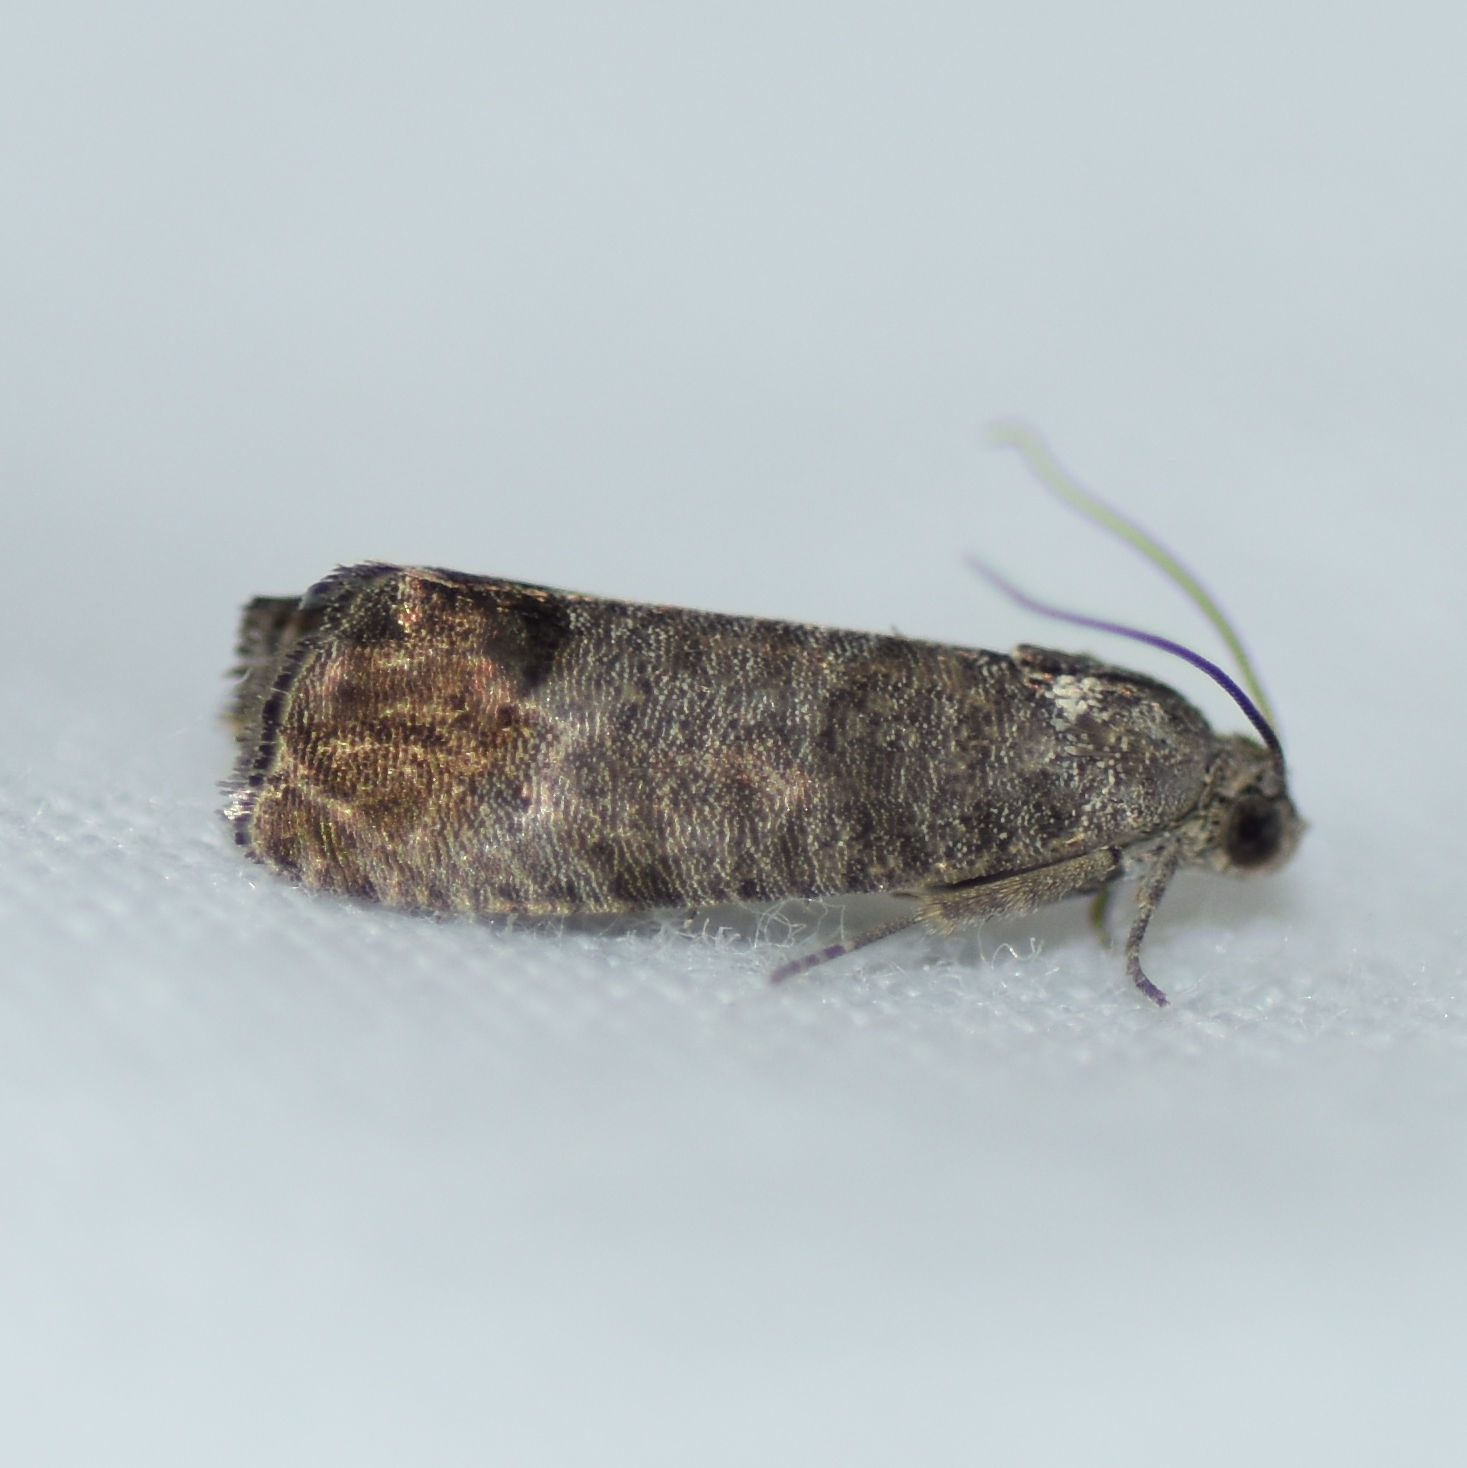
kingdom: Animalia
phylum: Arthropoda
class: Insecta
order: Lepidoptera
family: Tortricidae
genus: Cydia
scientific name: Cydia pomonella
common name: Codling moth
